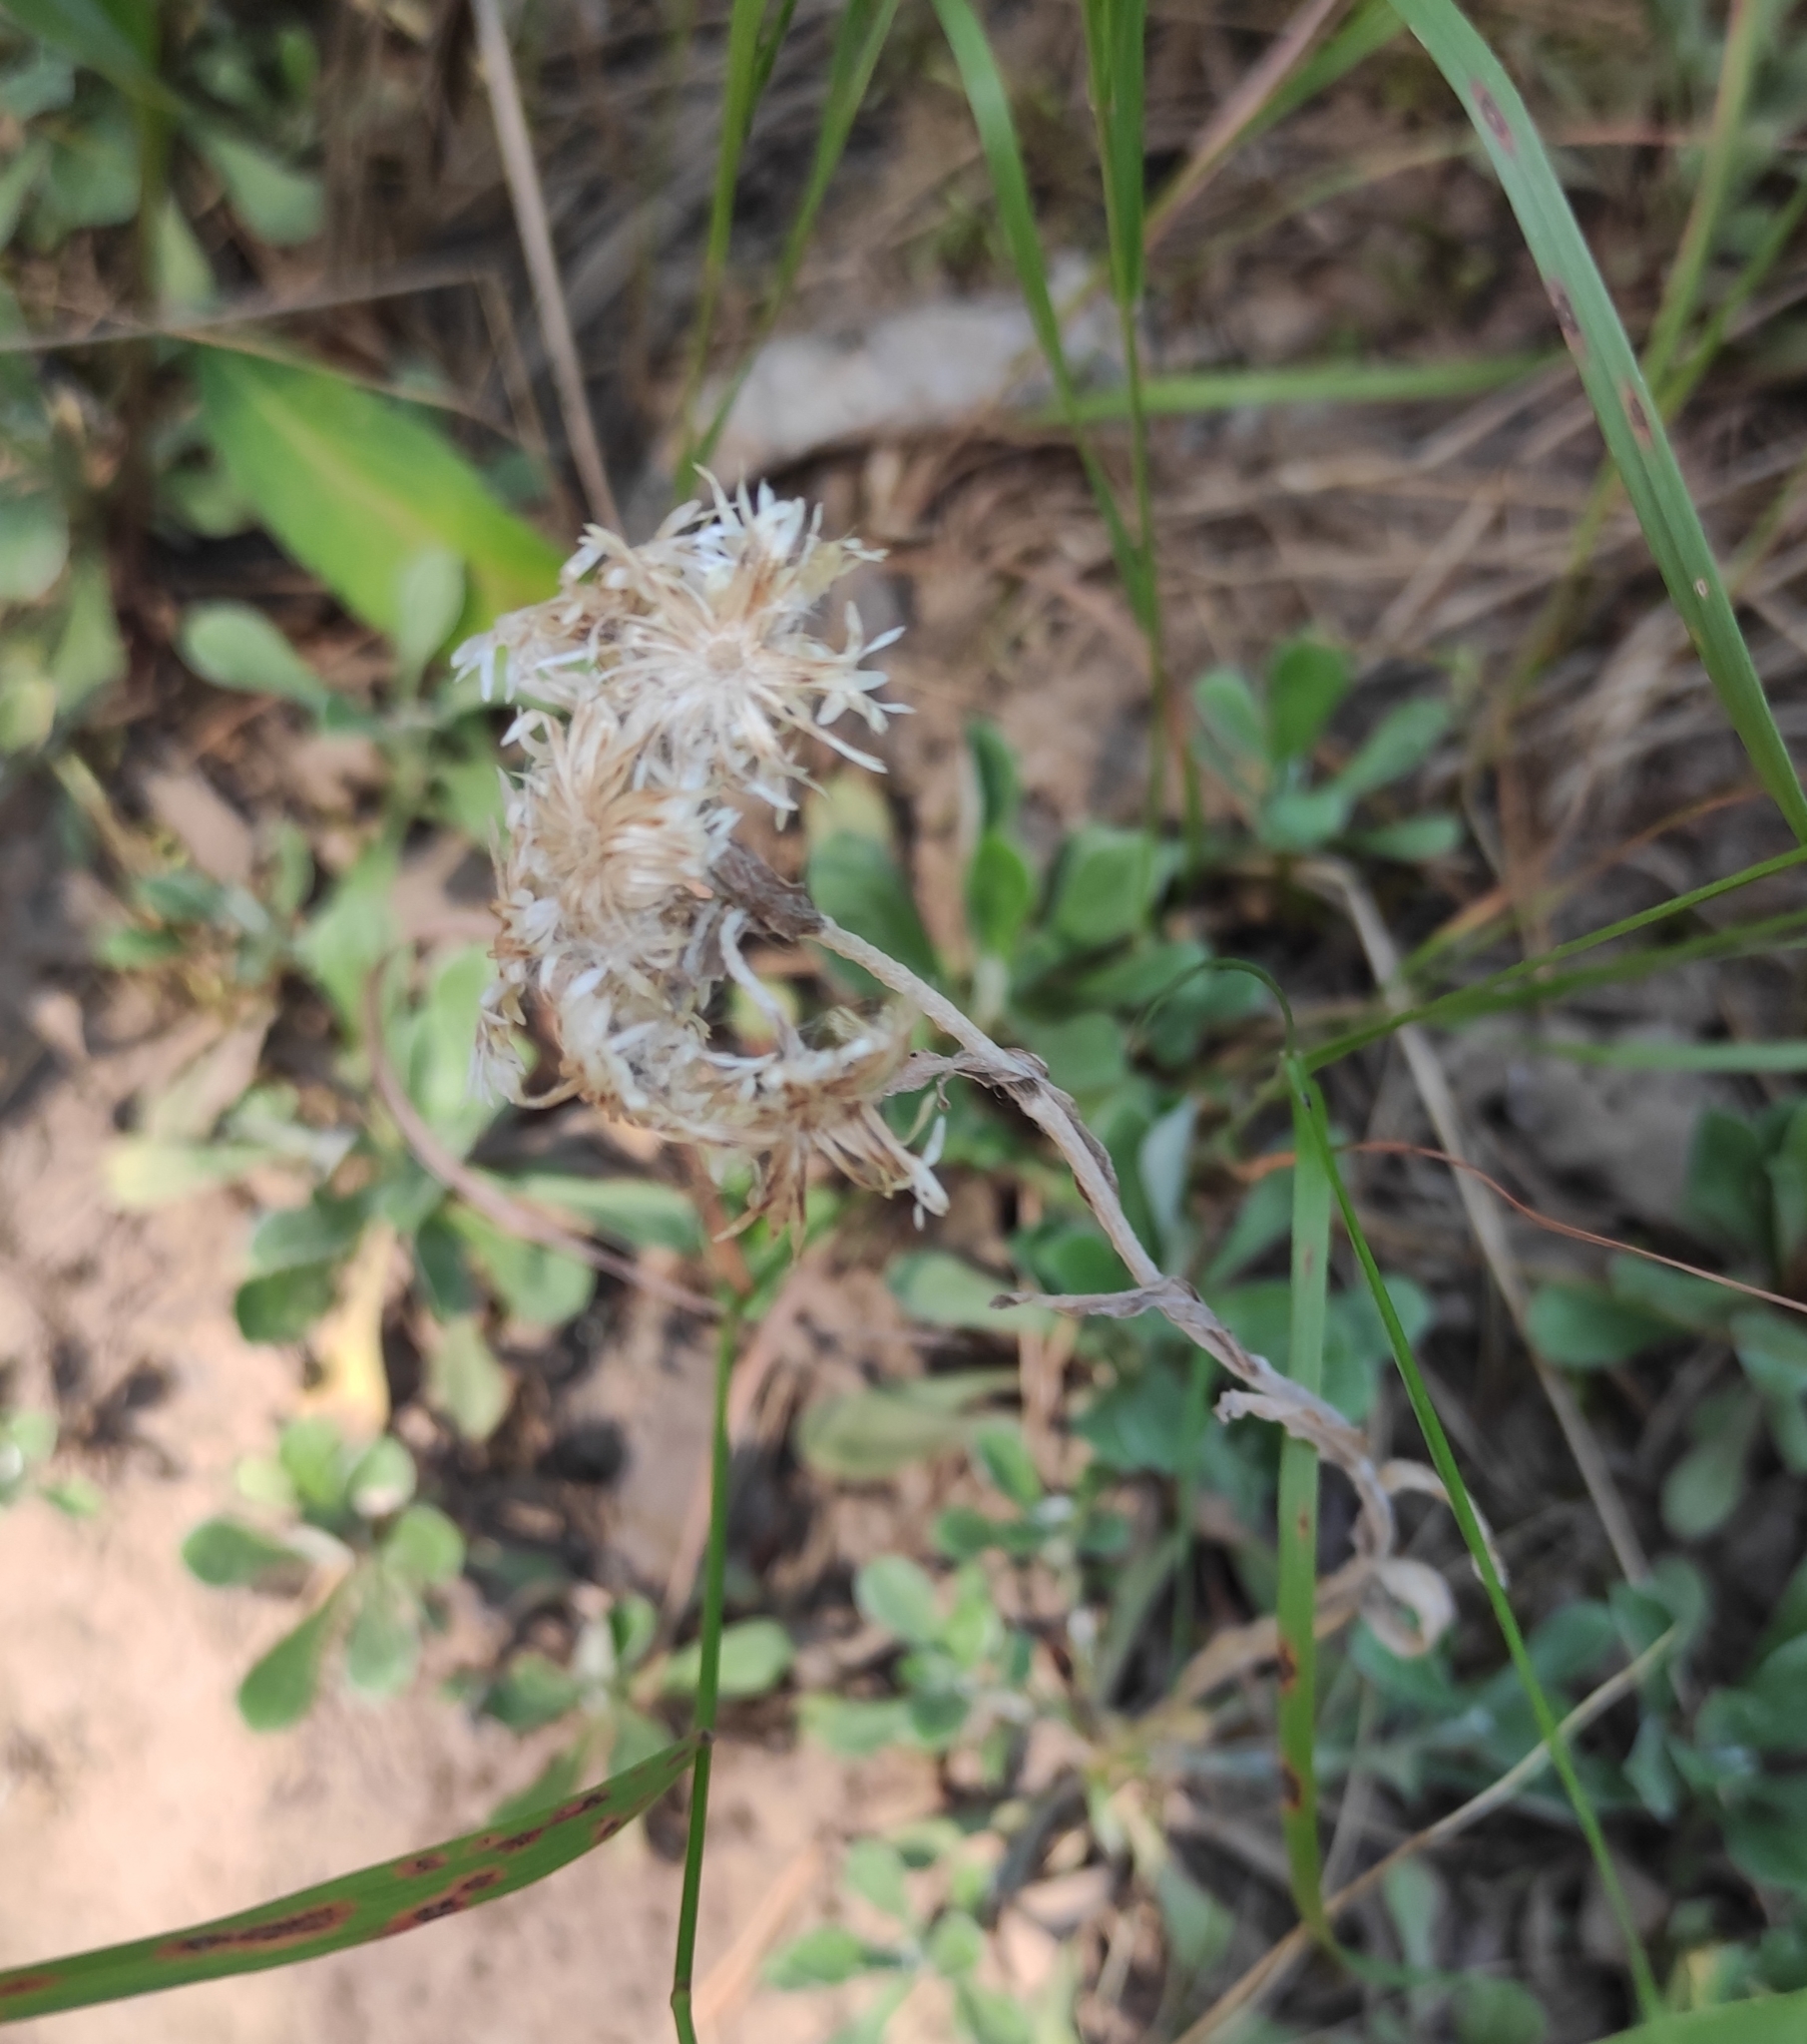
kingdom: Plantae
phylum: Tracheophyta
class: Magnoliopsida
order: Asterales
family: Asteraceae
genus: Antennaria
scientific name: Antennaria dioica
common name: Mountain everlasting
